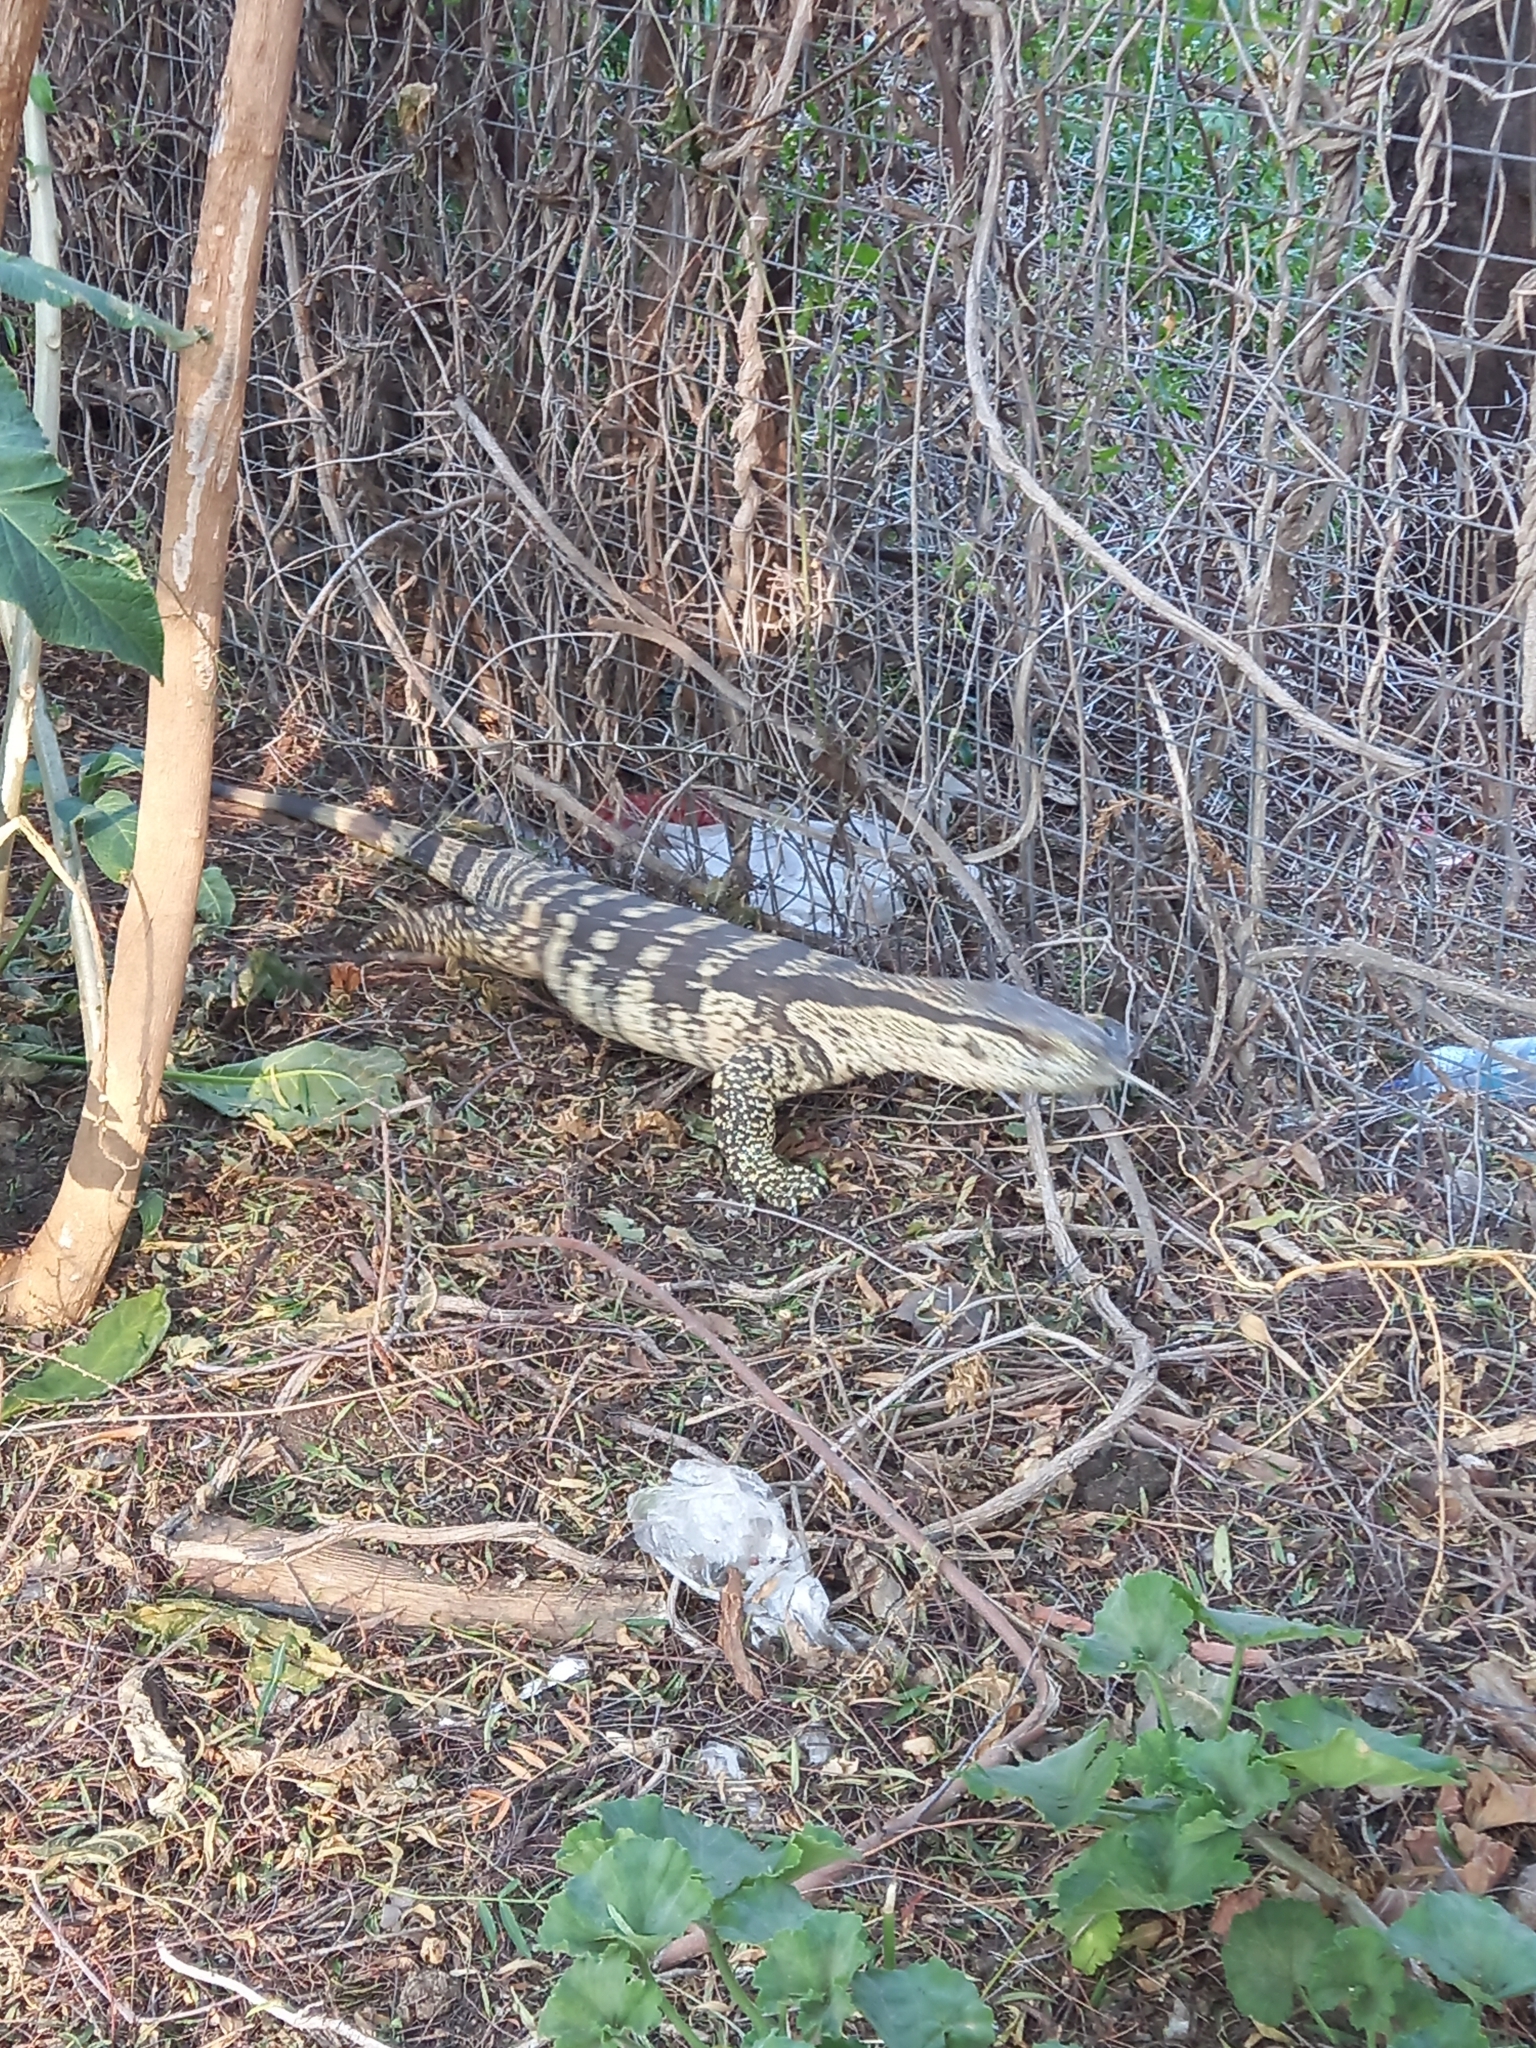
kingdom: Animalia
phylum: Chordata
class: Squamata
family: Varanidae
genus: Varanus
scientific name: Varanus albigularis
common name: White-throated monitor
